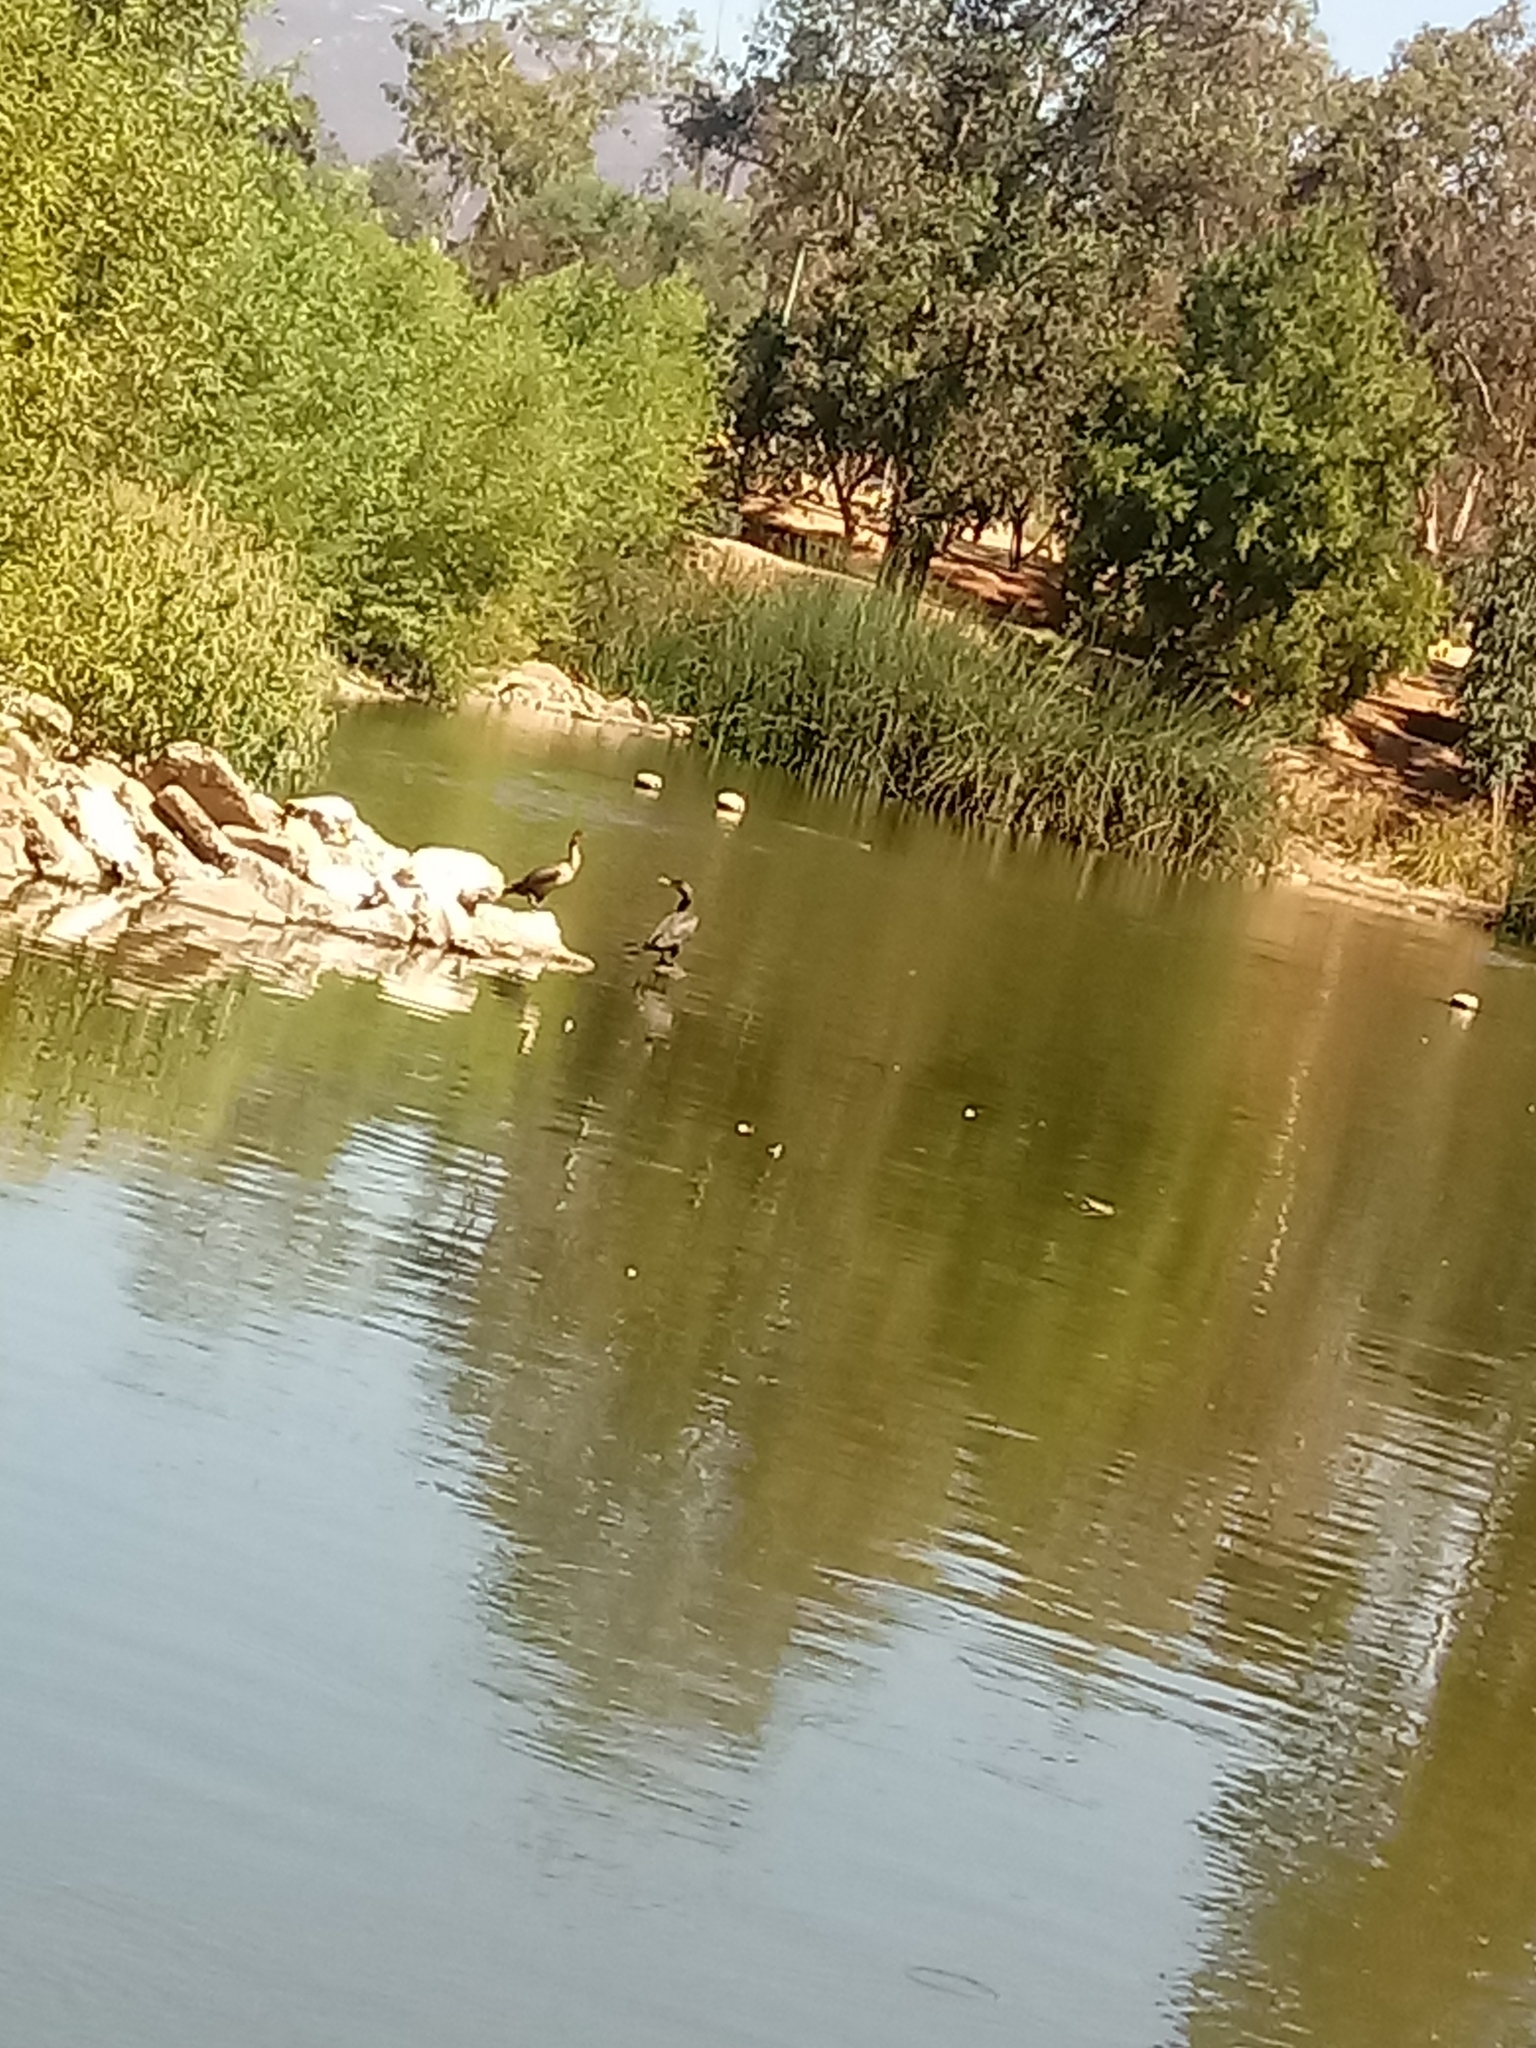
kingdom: Animalia
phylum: Chordata
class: Aves
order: Suliformes
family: Phalacrocoracidae
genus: Phalacrocorax
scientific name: Phalacrocorax auritus
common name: Double-crested cormorant
